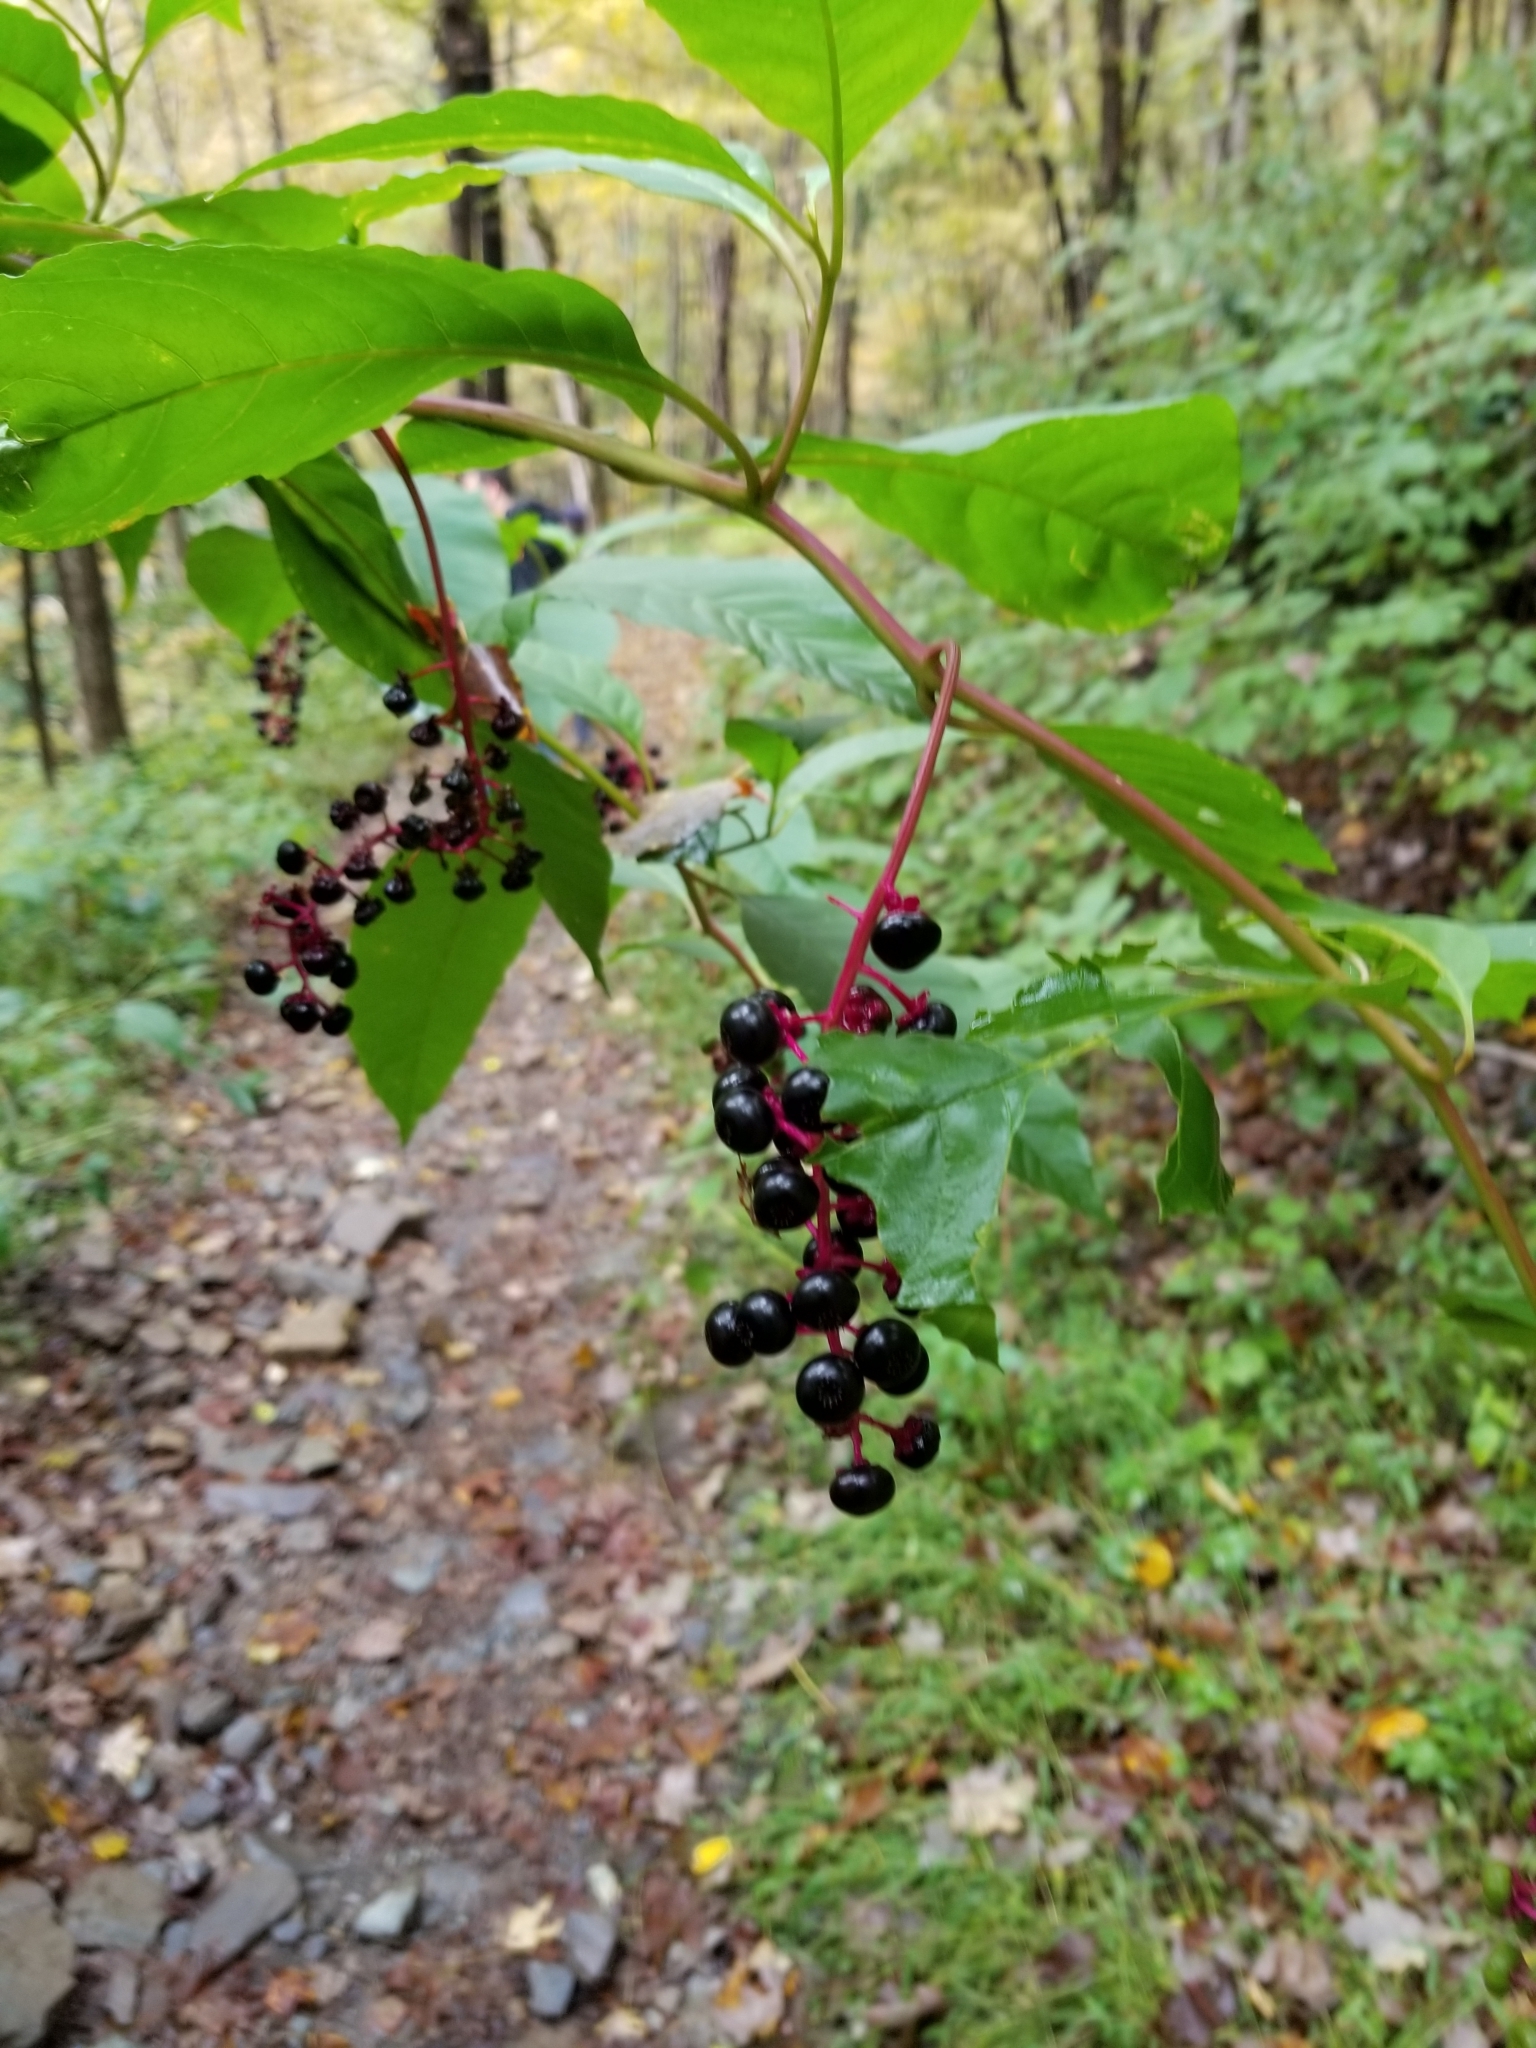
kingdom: Plantae
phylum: Tracheophyta
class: Magnoliopsida
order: Caryophyllales
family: Phytolaccaceae
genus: Phytolacca
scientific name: Phytolacca americana
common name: American pokeweed
